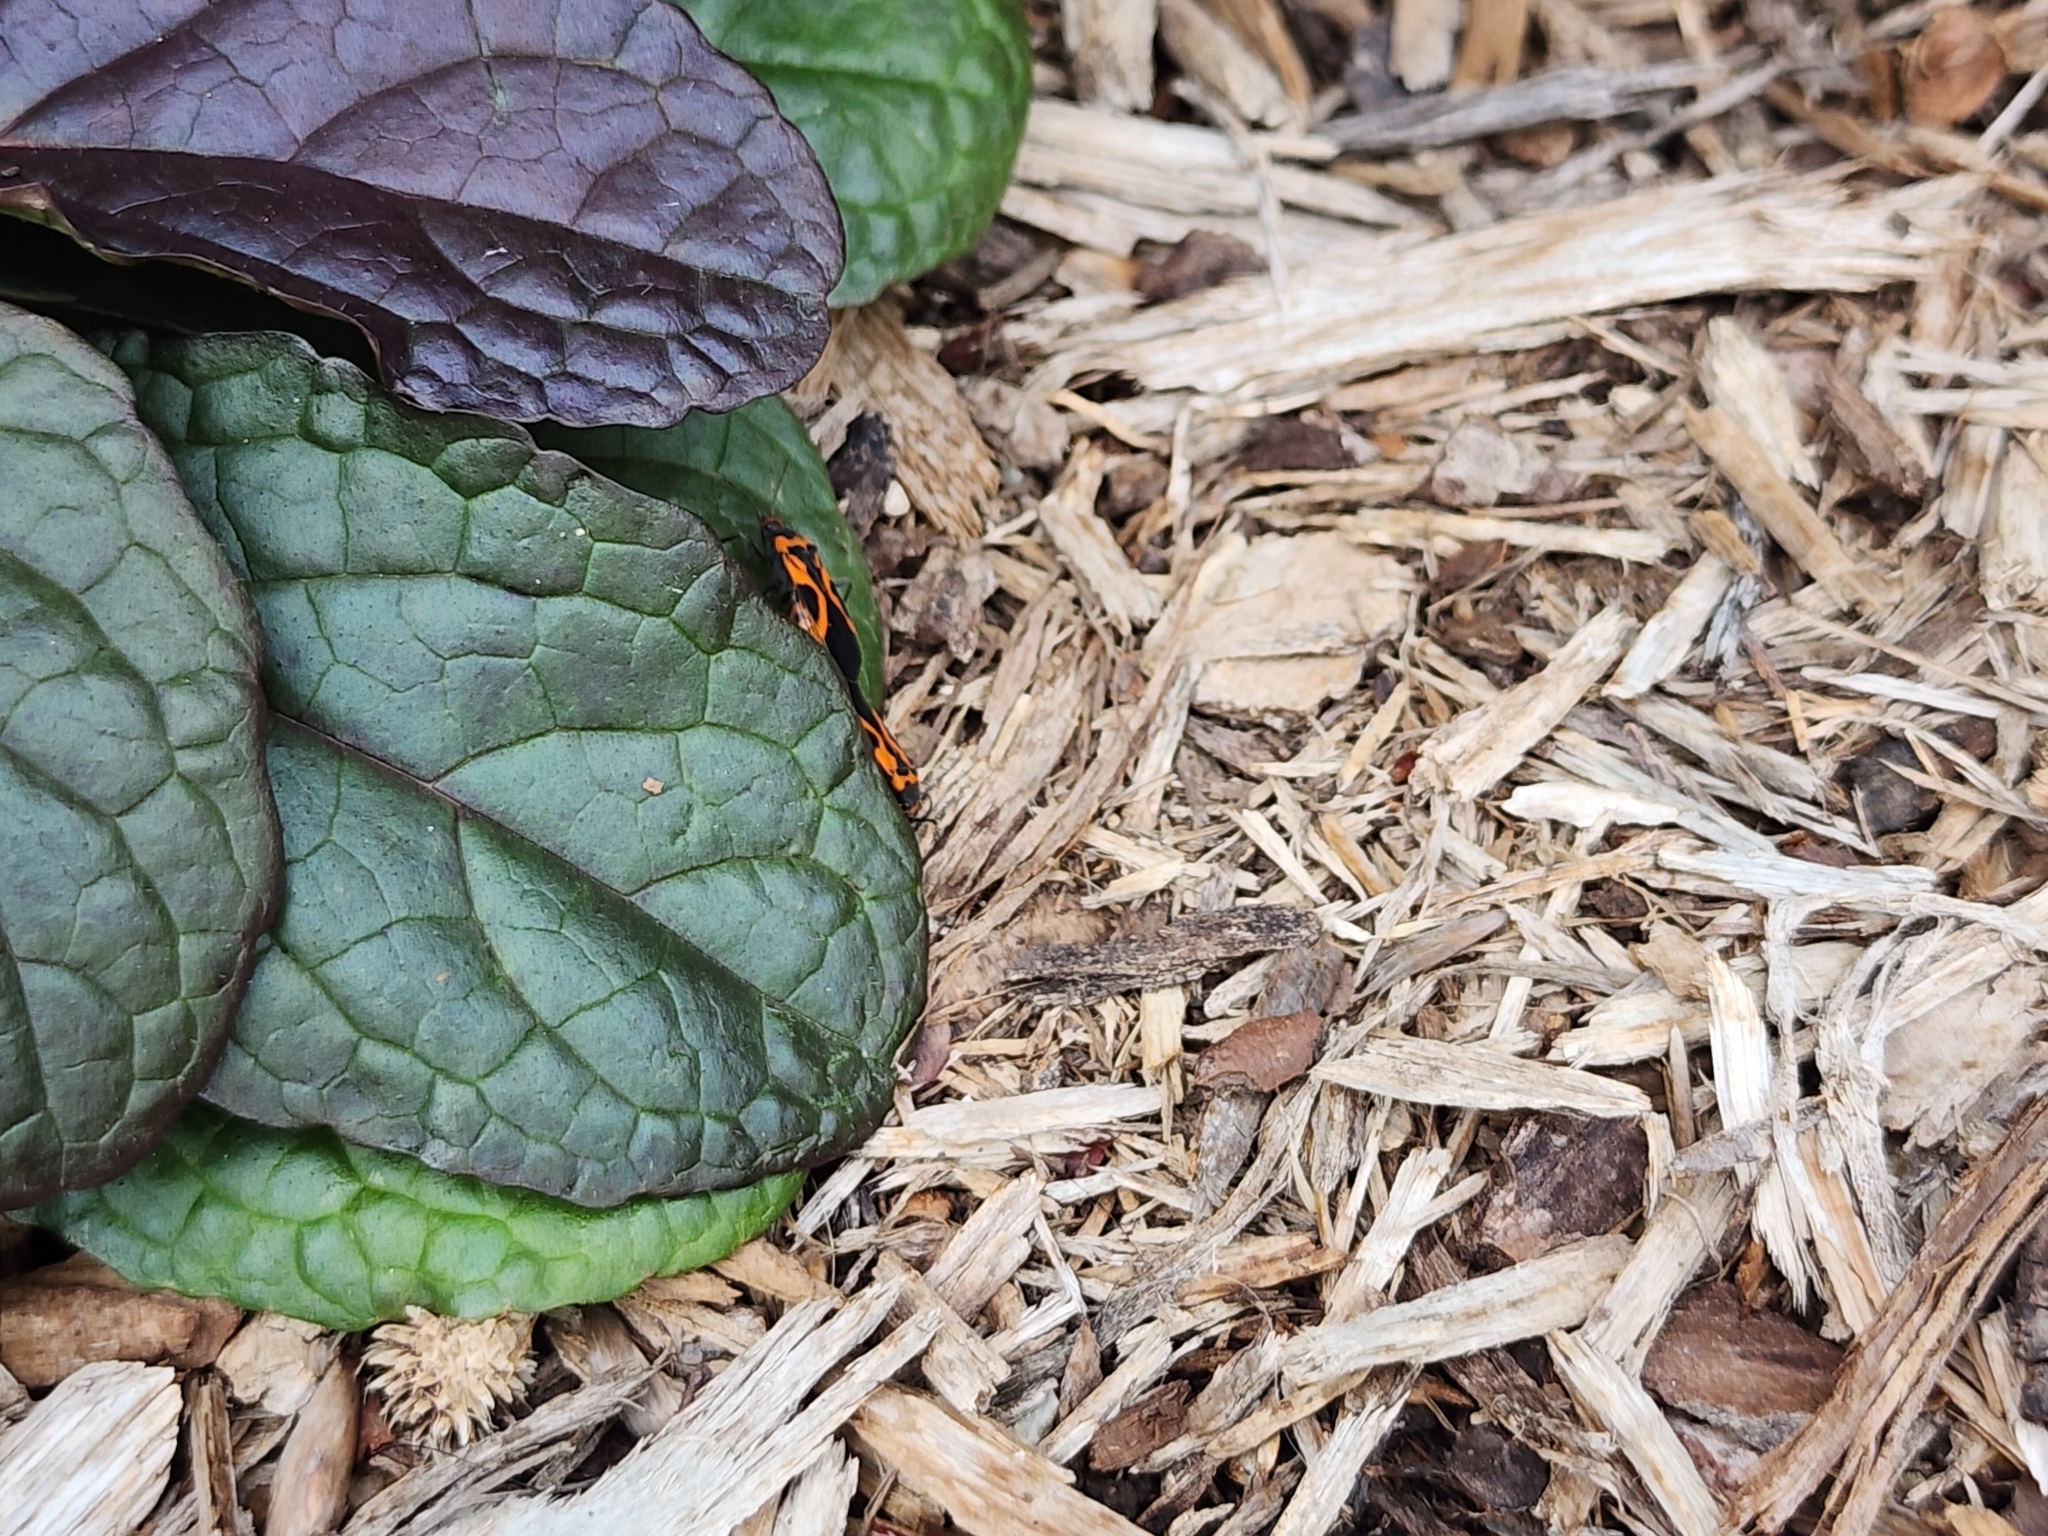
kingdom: Animalia
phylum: Arthropoda
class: Insecta
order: Hemiptera
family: Lygaeidae
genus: Lygaeus
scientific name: Lygaeus turcicus
